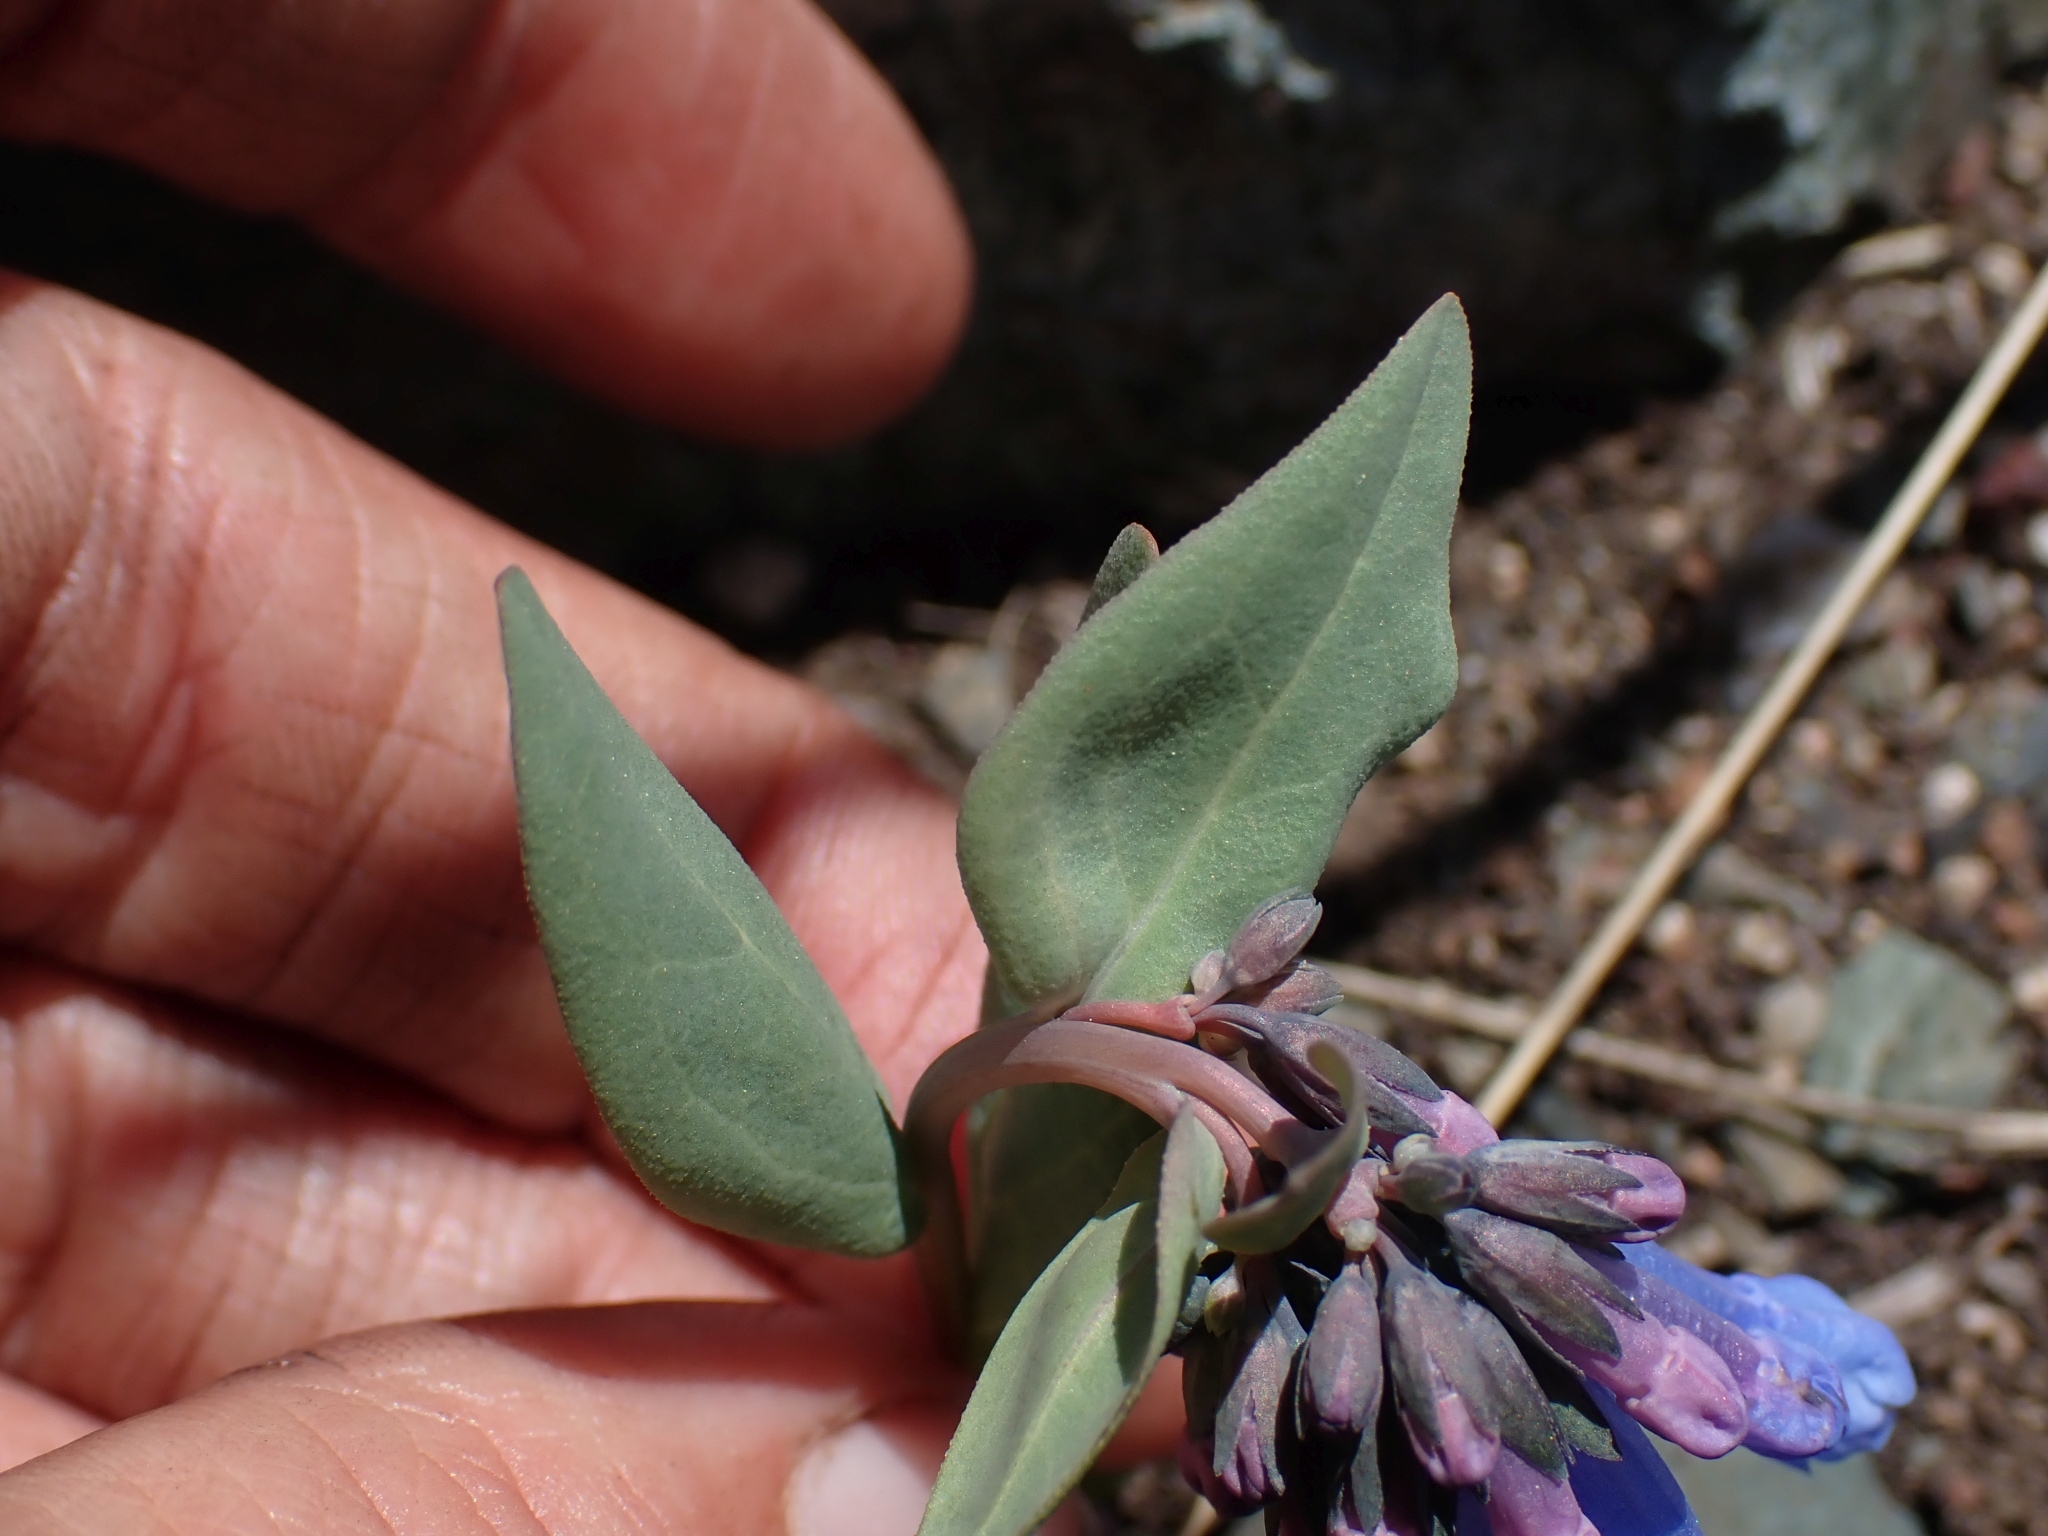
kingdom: Plantae
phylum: Tracheophyta
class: Magnoliopsida
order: Boraginales
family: Boraginaceae
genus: Mertensia
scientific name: Mertensia longiflora
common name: Large-flowered bluebells
